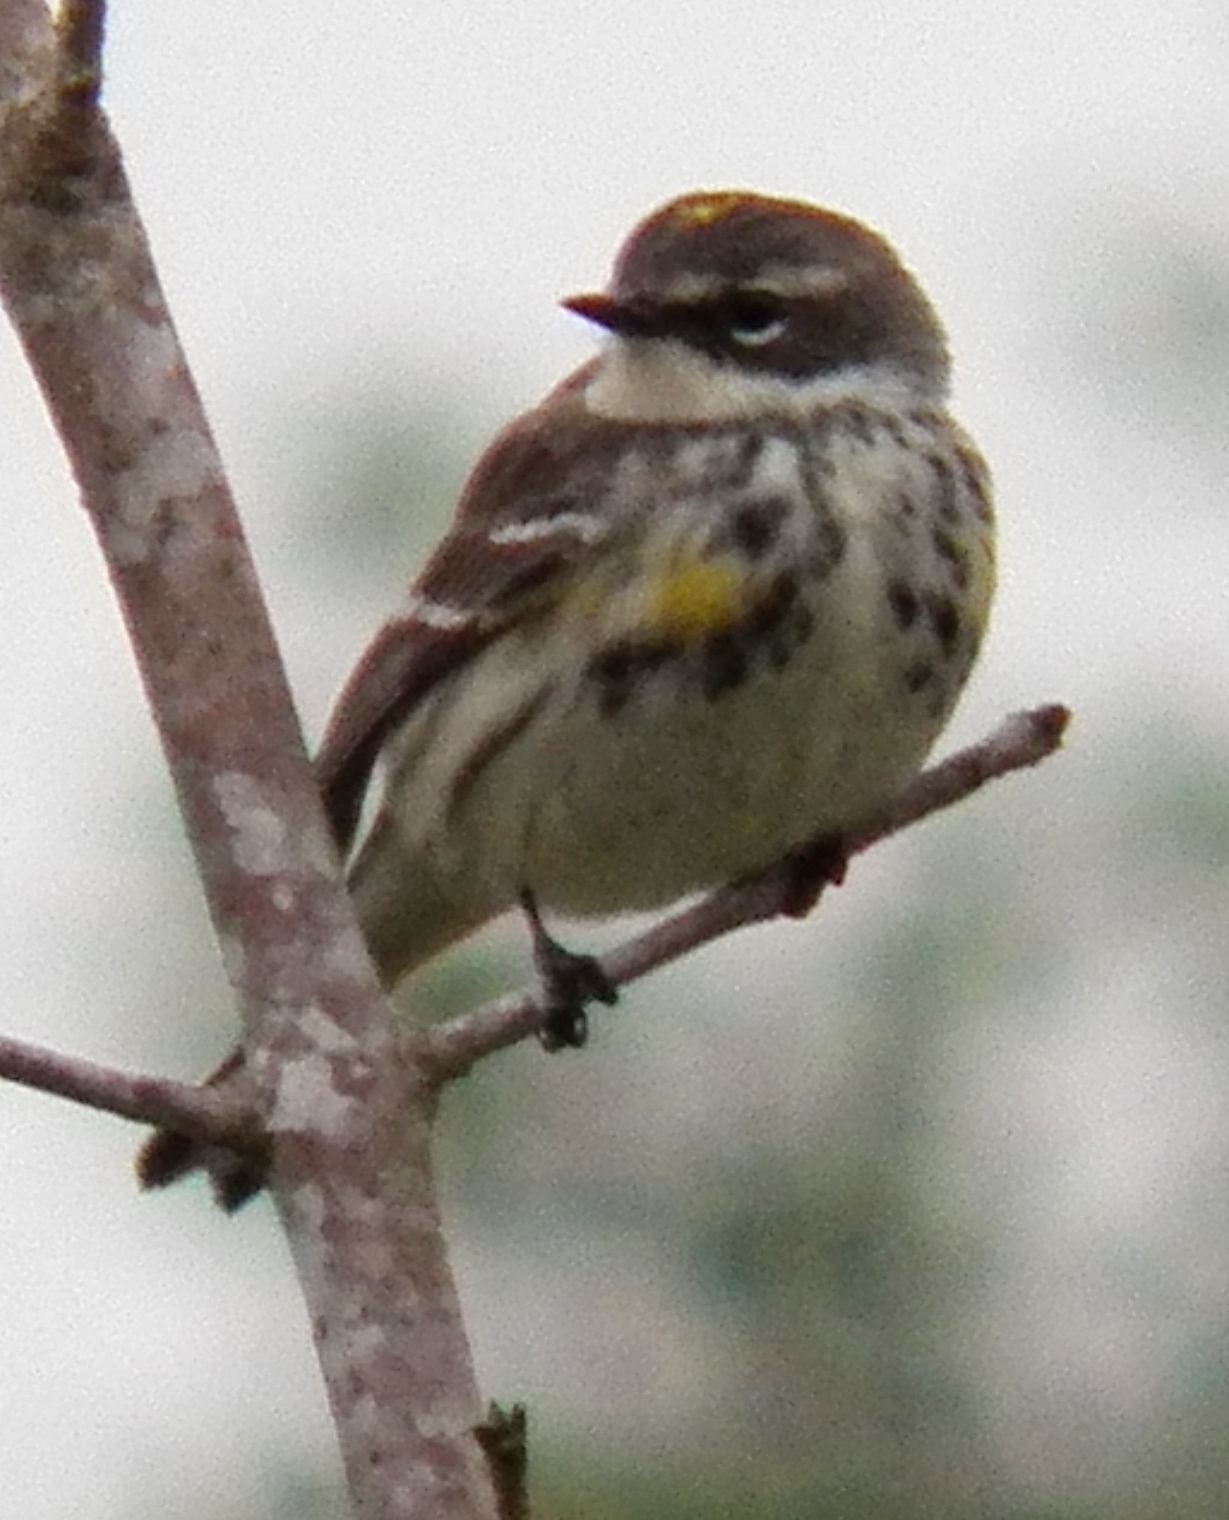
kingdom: Animalia
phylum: Chordata
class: Aves
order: Passeriformes
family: Parulidae
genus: Setophaga
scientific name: Setophaga coronata
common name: Myrtle warbler
